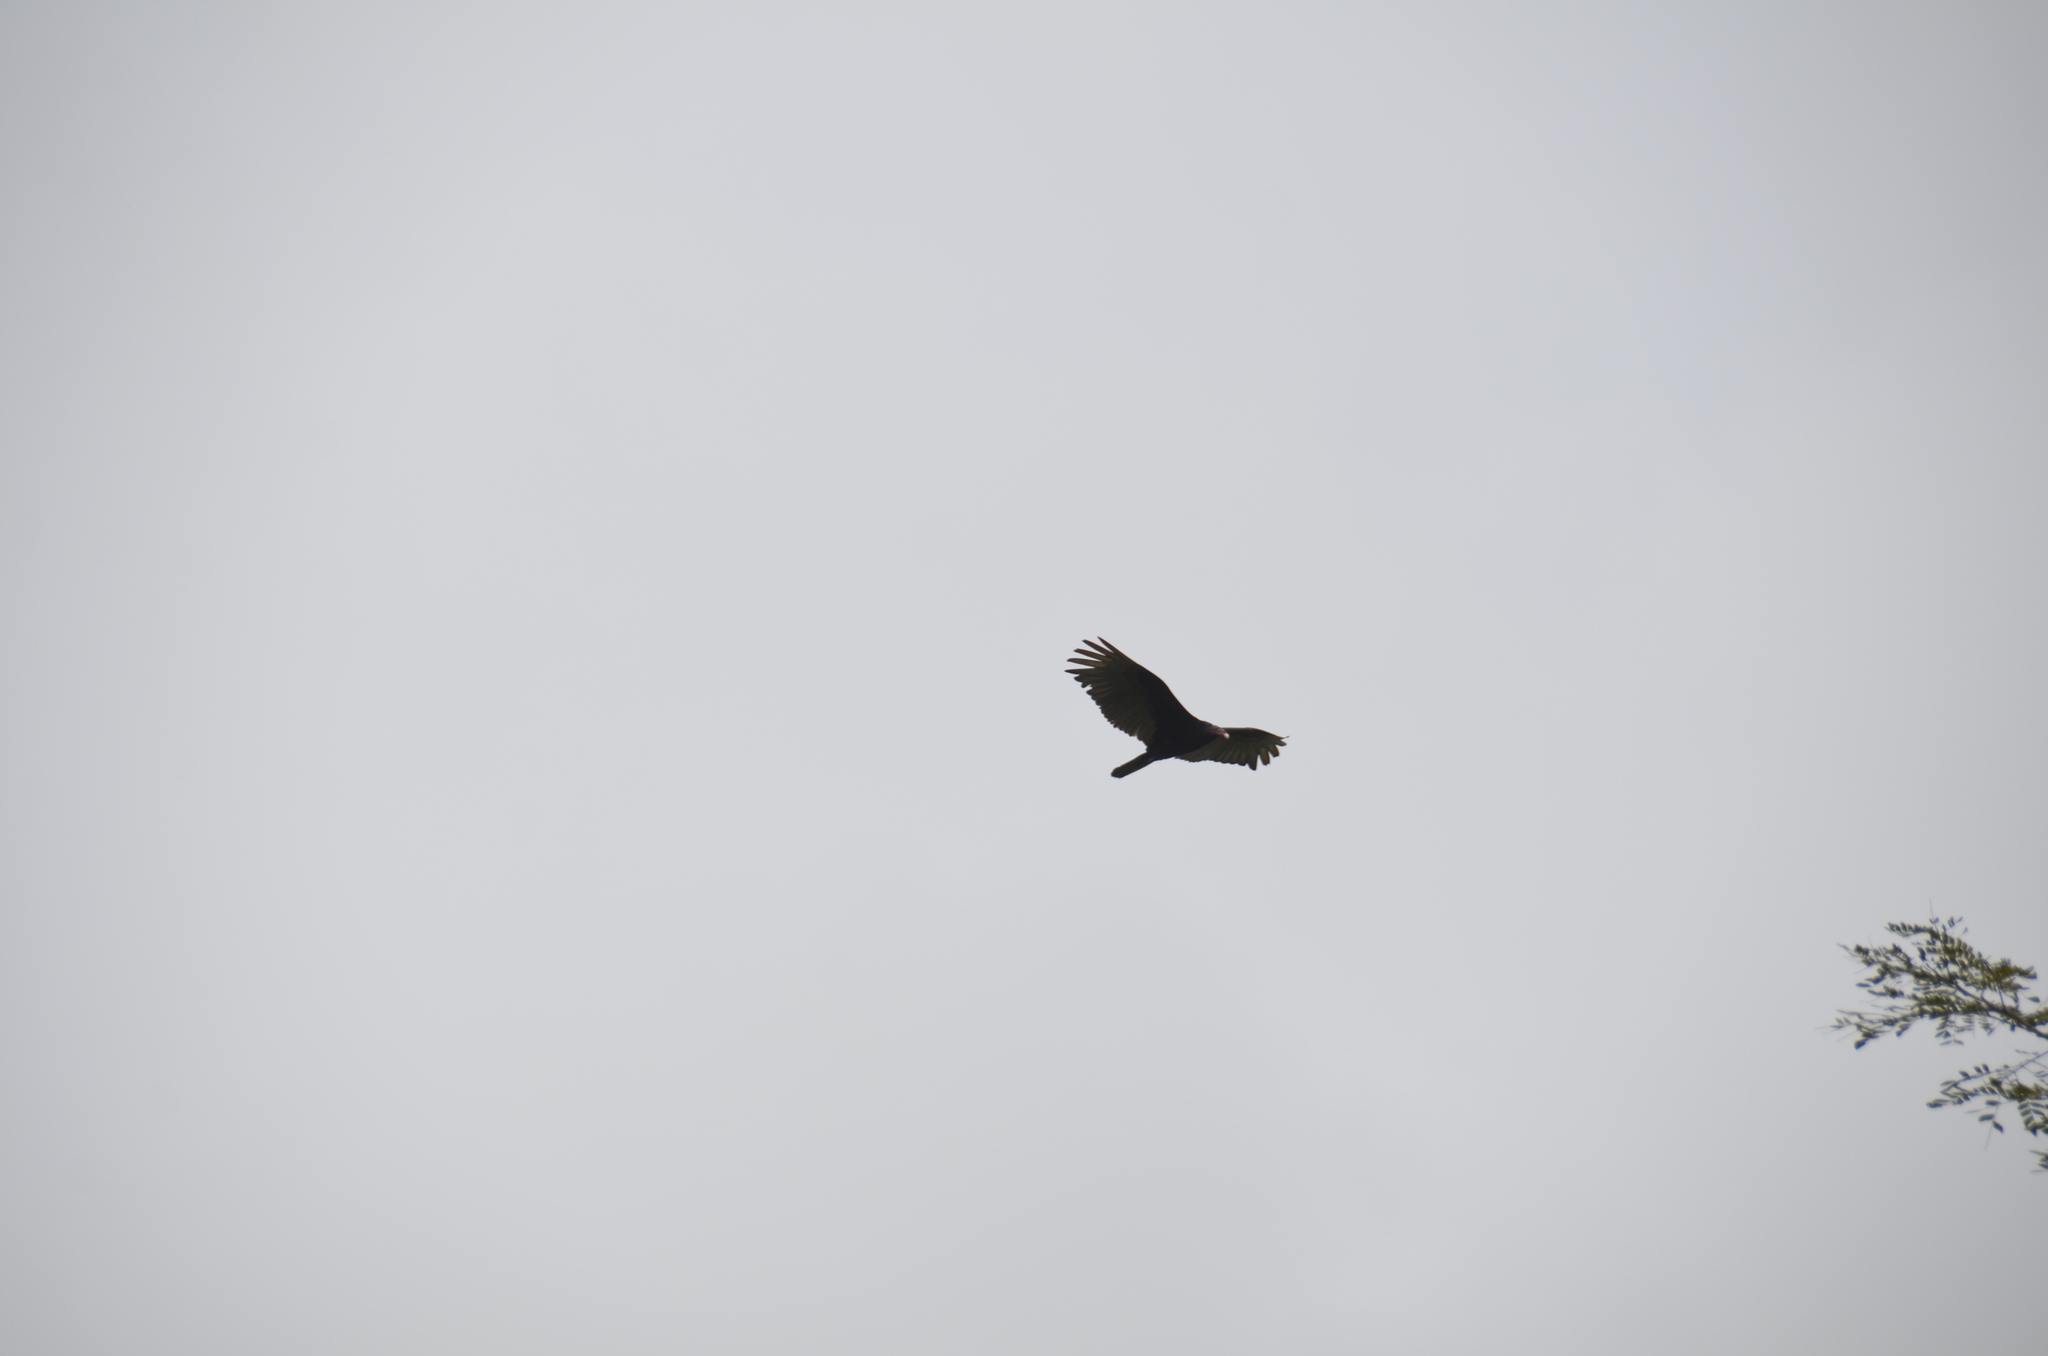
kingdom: Animalia
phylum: Chordata
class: Aves
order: Accipitriformes
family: Cathartidae
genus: Cathartes
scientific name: Cathartes aura
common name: Turkey vulture
